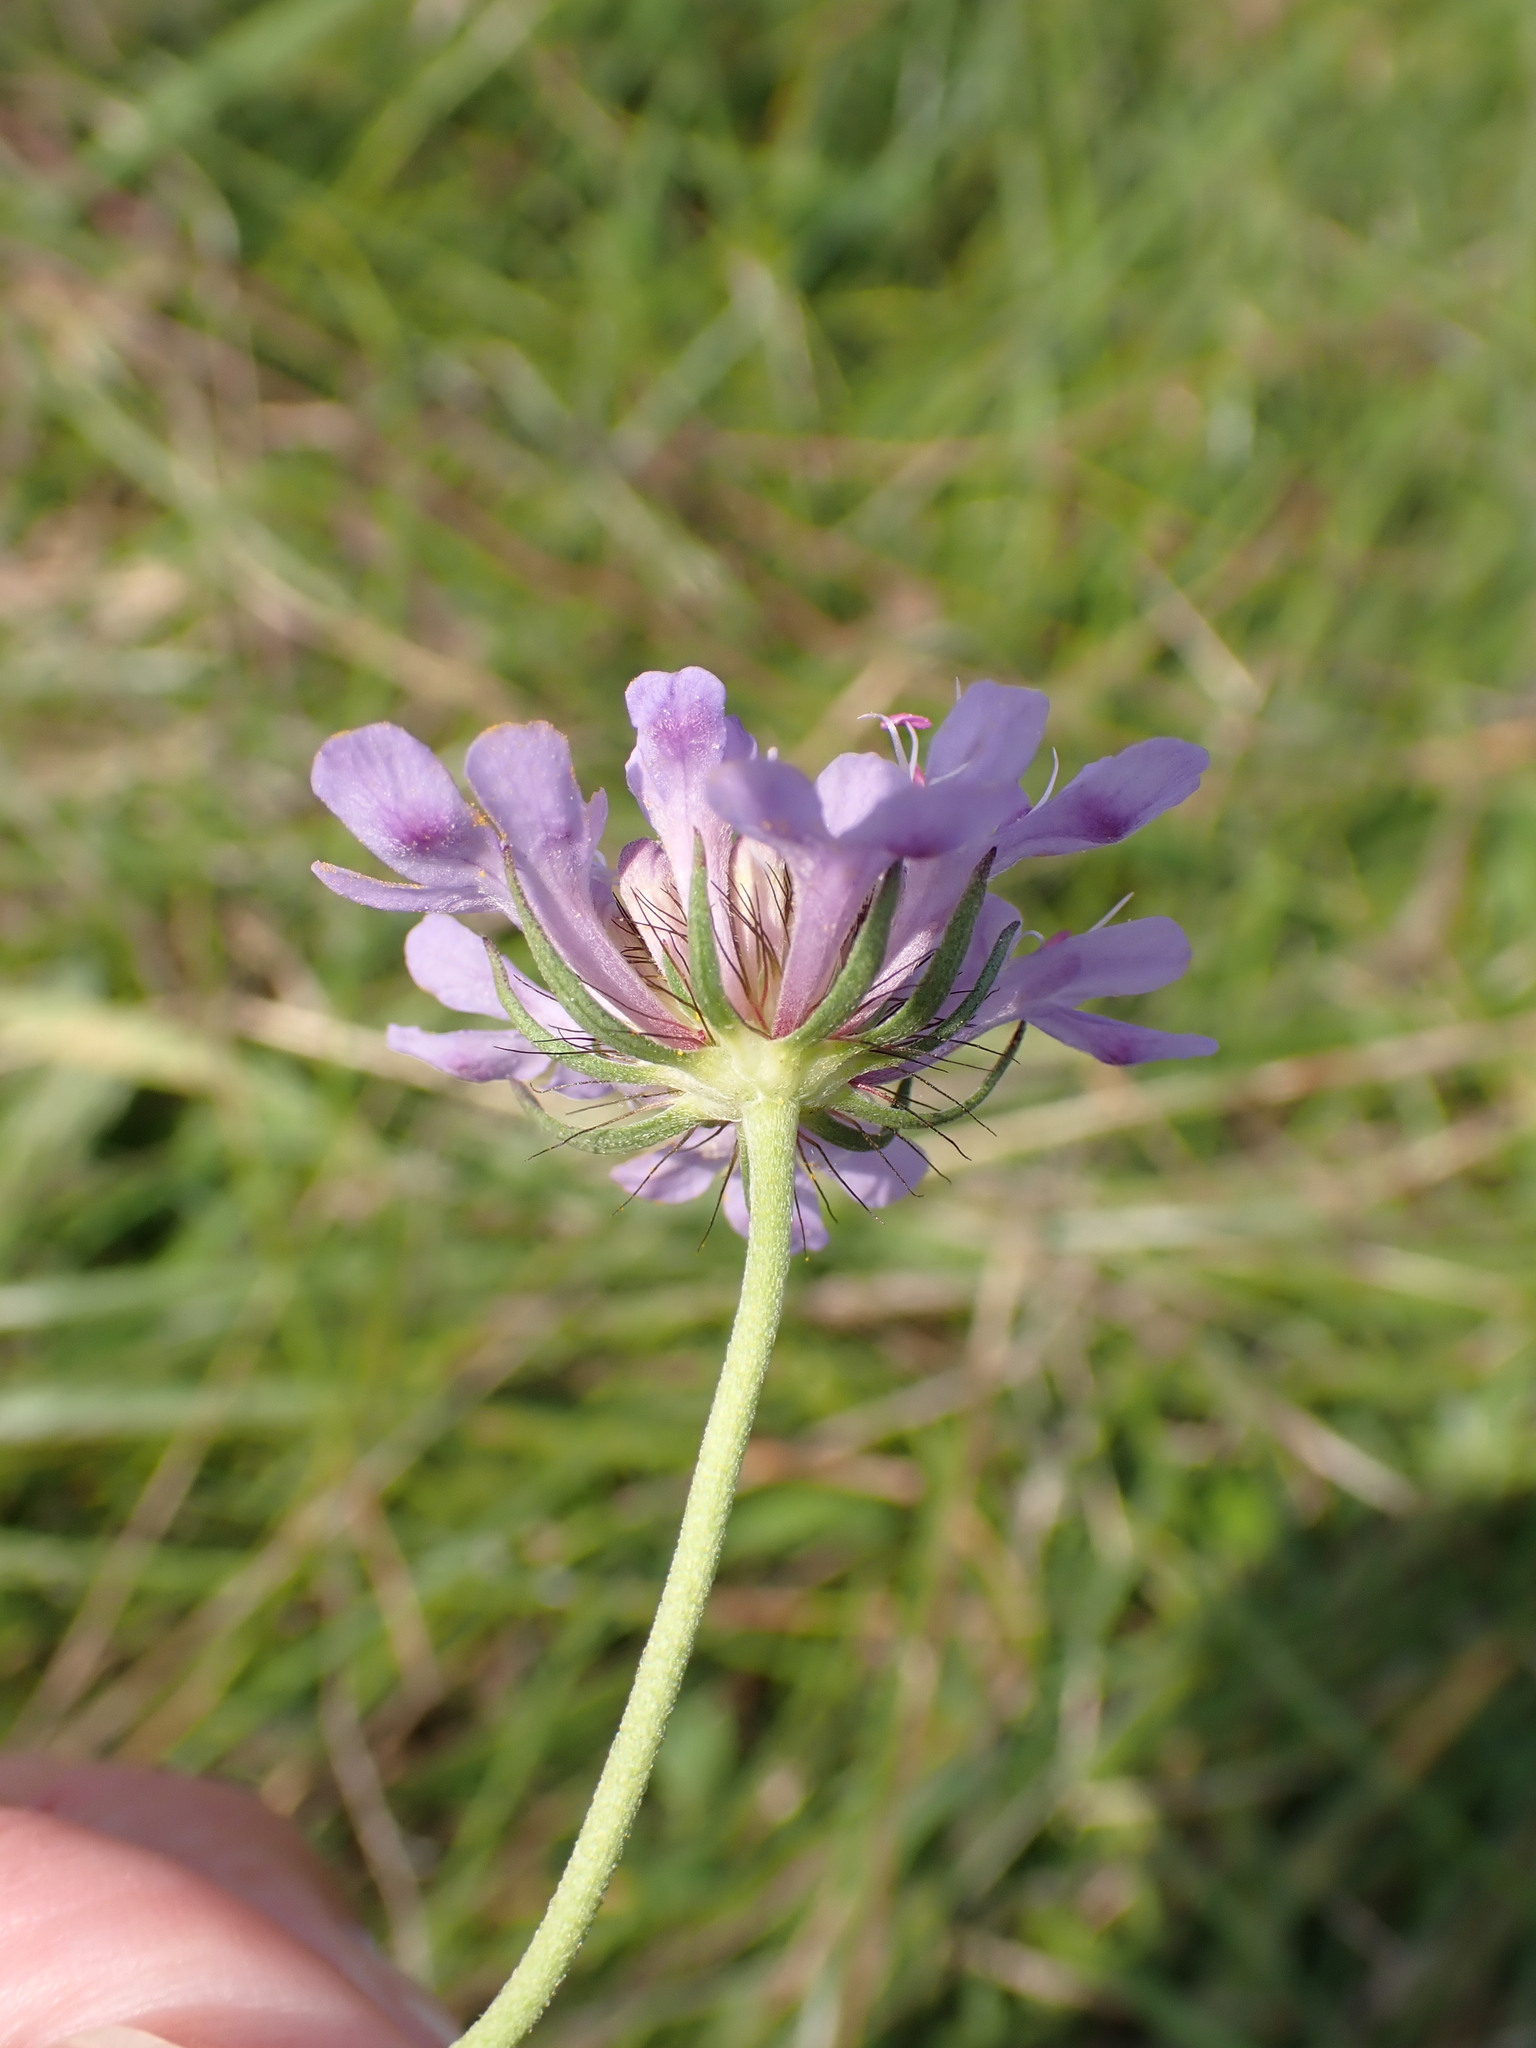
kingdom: Plantae
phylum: Tracheophyta
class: Magnoliopsida
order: Dipsacales
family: Caprifoliaceae
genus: Scabiosa
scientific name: Scabiosa columbaria
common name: Small scabious
